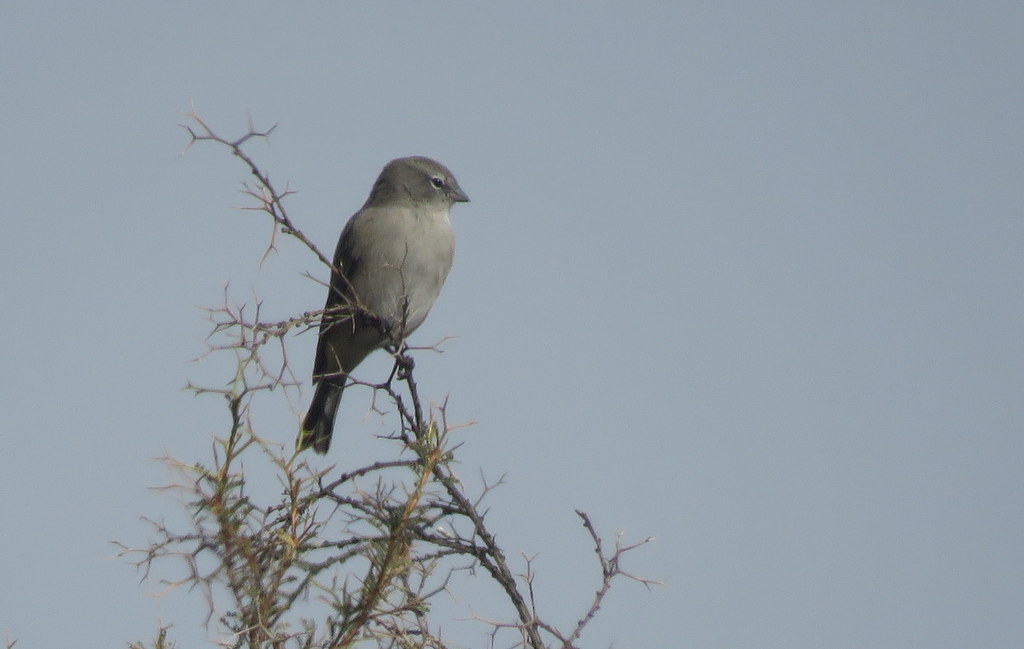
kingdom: Animalia
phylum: Chordata
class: Aves
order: Passeriformes
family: Thraupidae
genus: Geospizopsis
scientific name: Geospizopsis plebejus
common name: Ash-breasted sierra-finch
